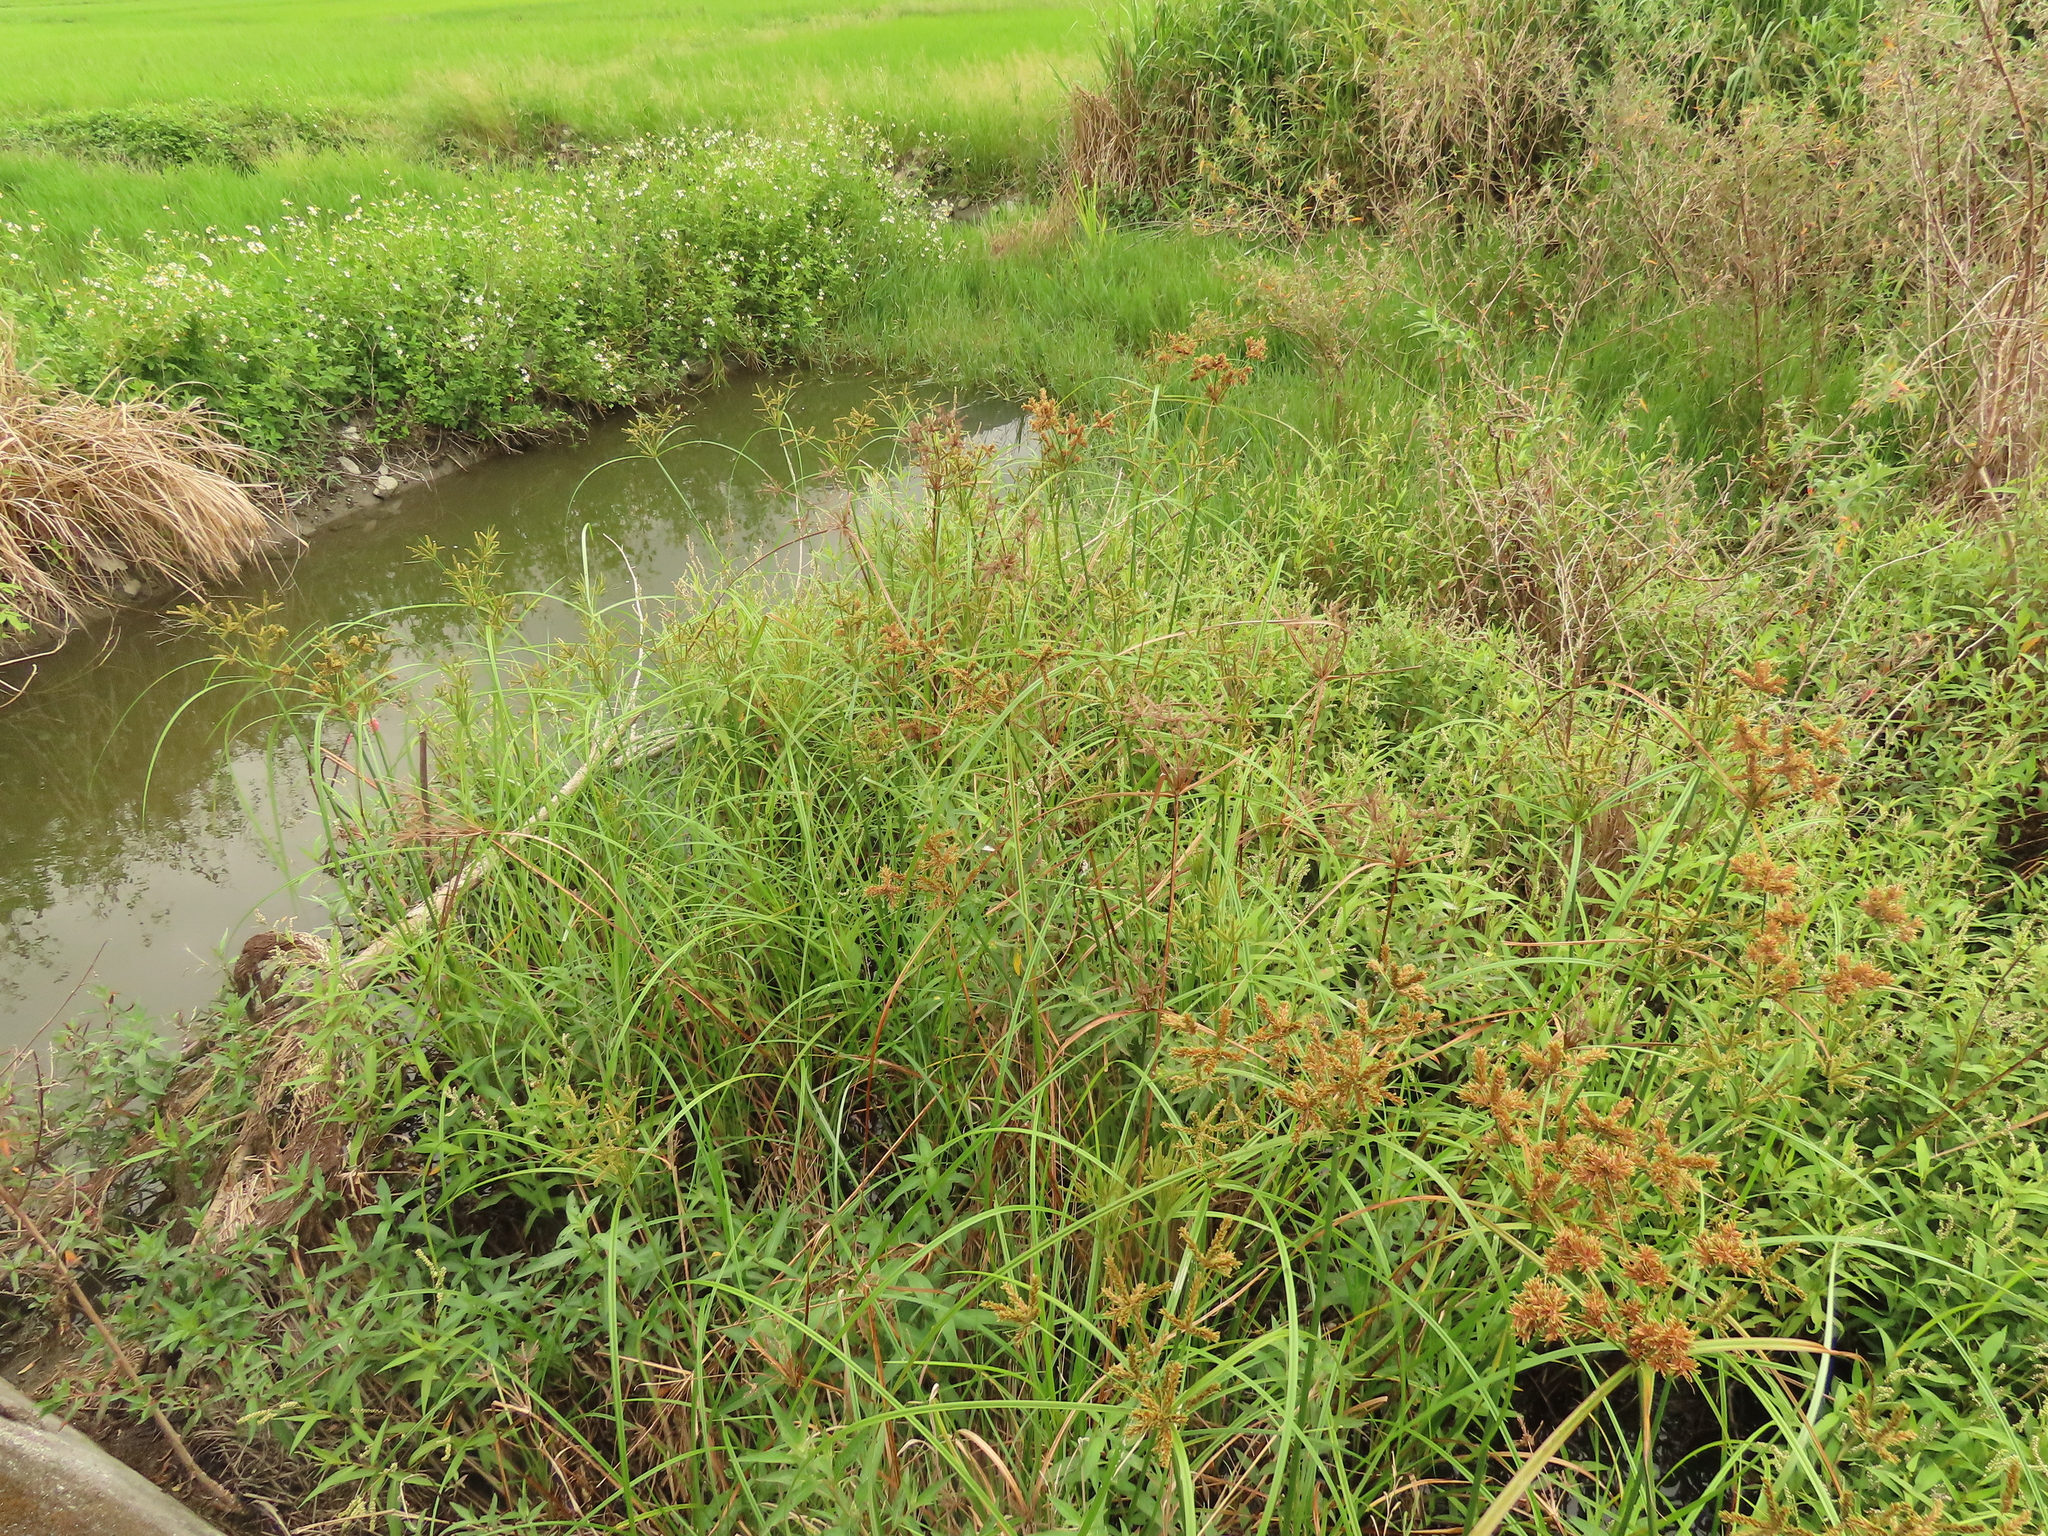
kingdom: Plantae
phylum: Tracheophyta
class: Liliopsida
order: Poales
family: Cyperaceae
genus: Cyperus
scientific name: Cyperus imbricatus
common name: Shingle flatsedge
